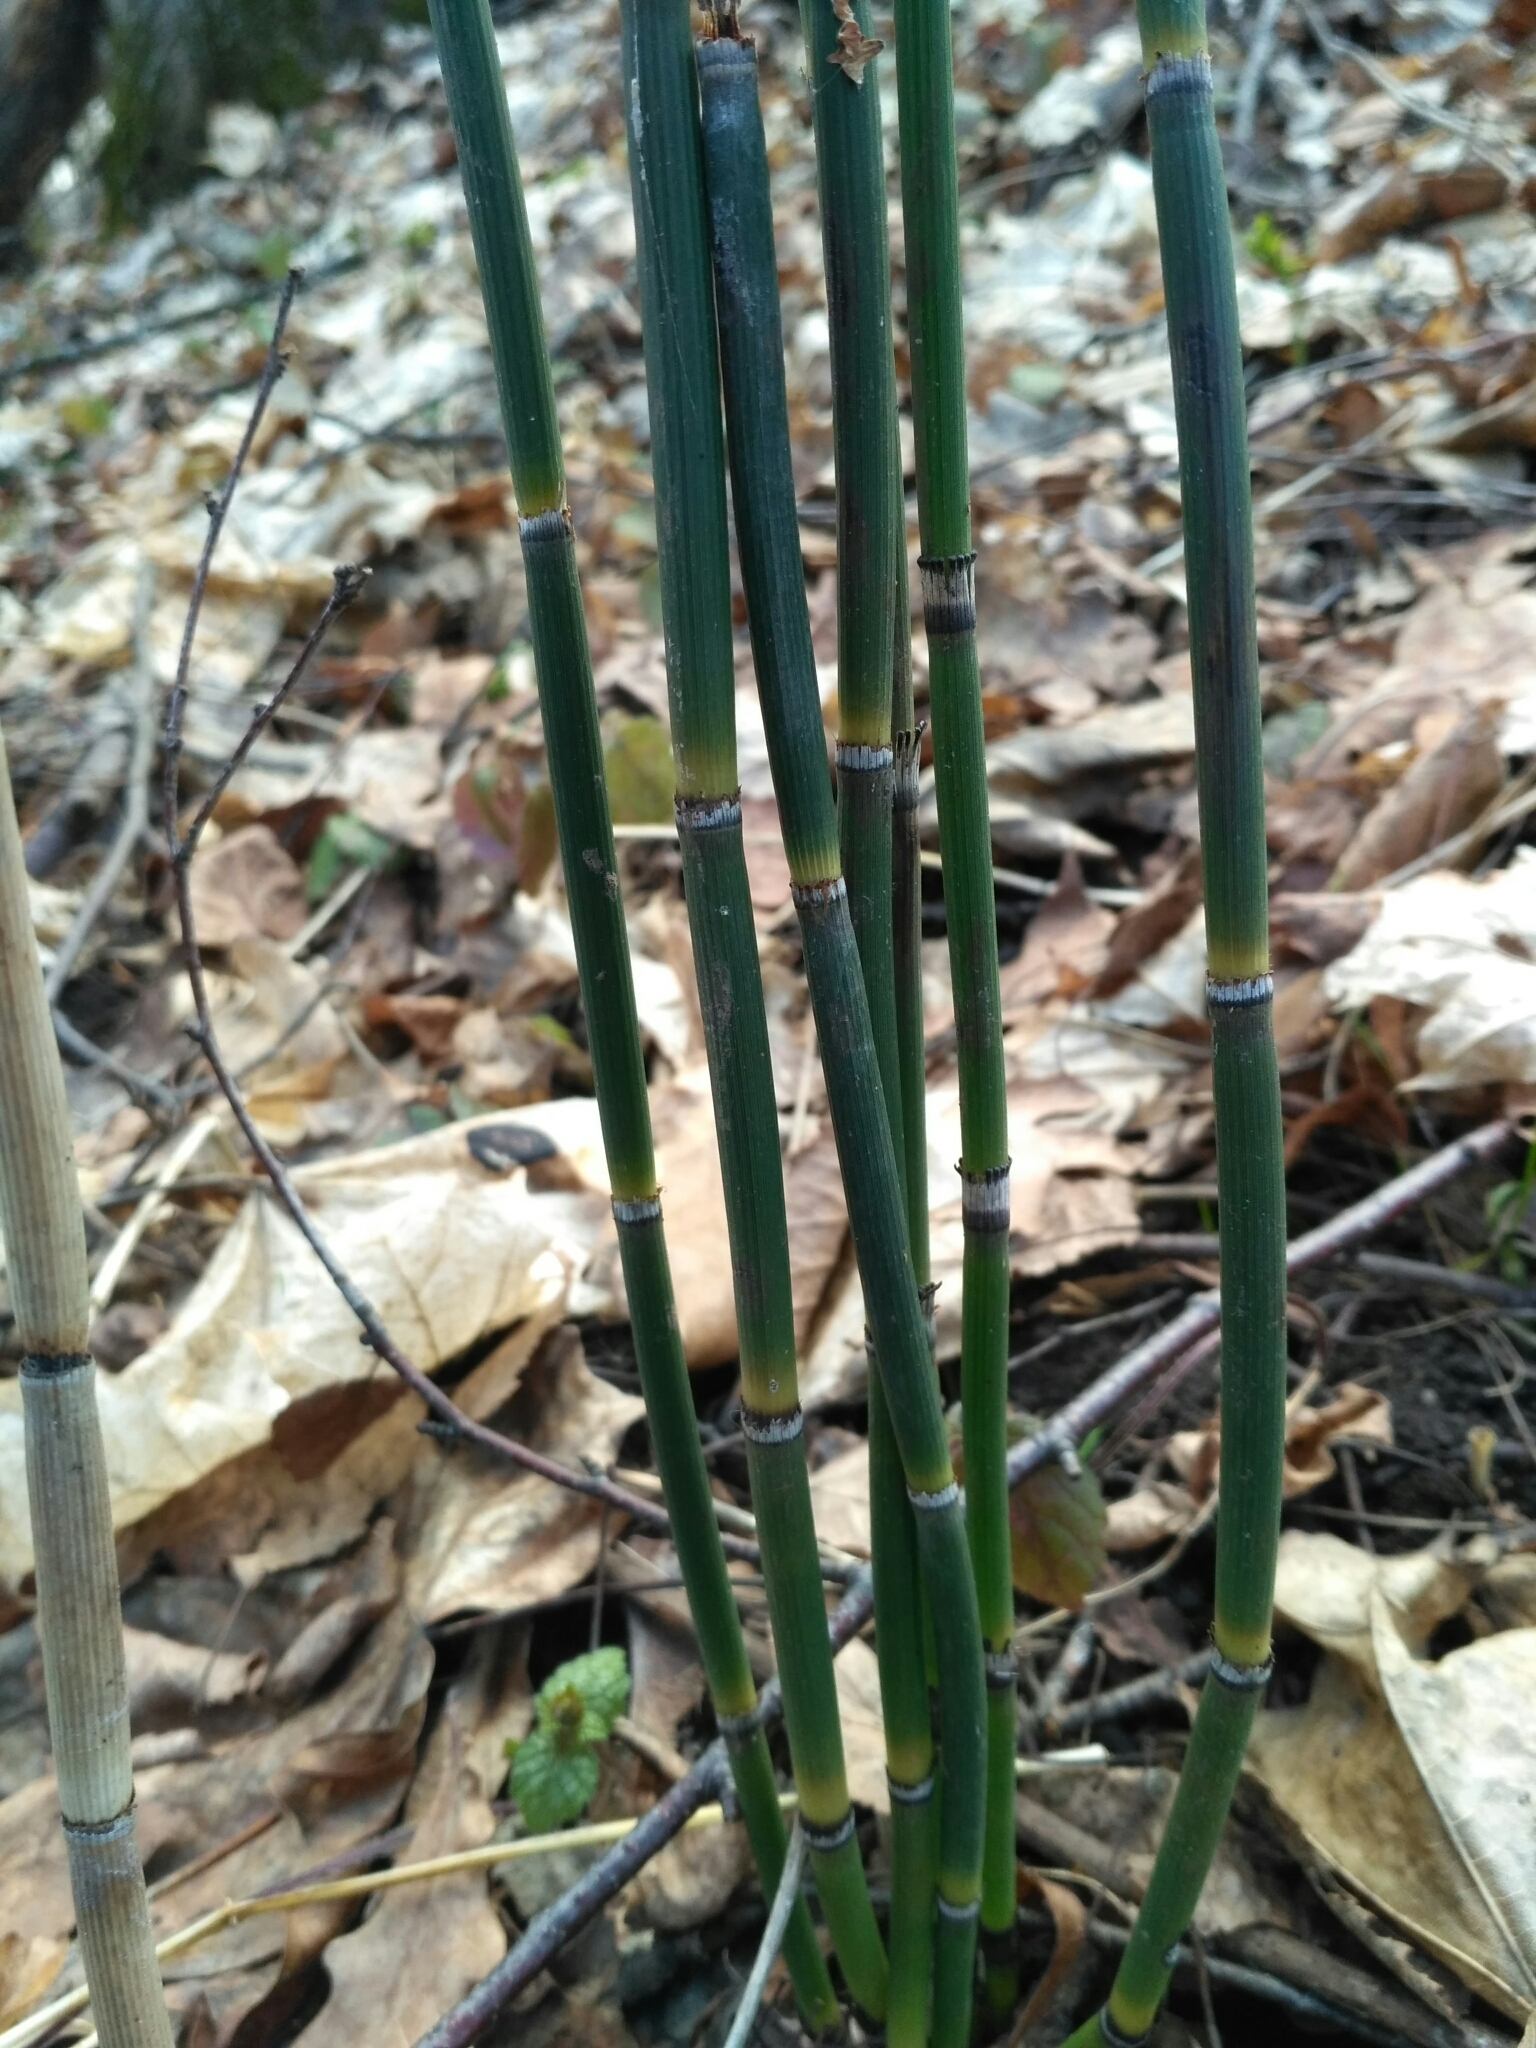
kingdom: Plantae
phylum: Tracheophyta
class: Polypodiopsida
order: Equisetales
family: Equisetaceae
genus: Equisetum
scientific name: Equisetum hyemale
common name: Rough horsetail
